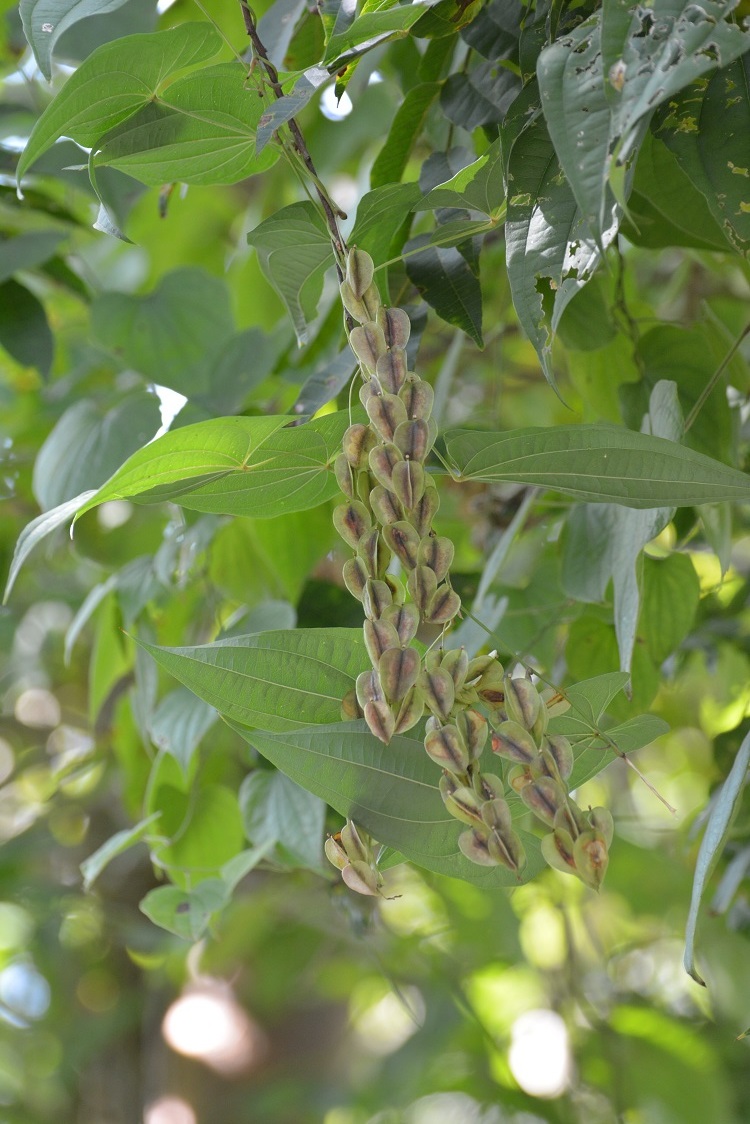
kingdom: Plantae
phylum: Tracheophyta
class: Liliopsida
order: Dioscoreales
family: Dioscoreaceae
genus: Dioscorea
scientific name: Dioscorea carpomaculata
